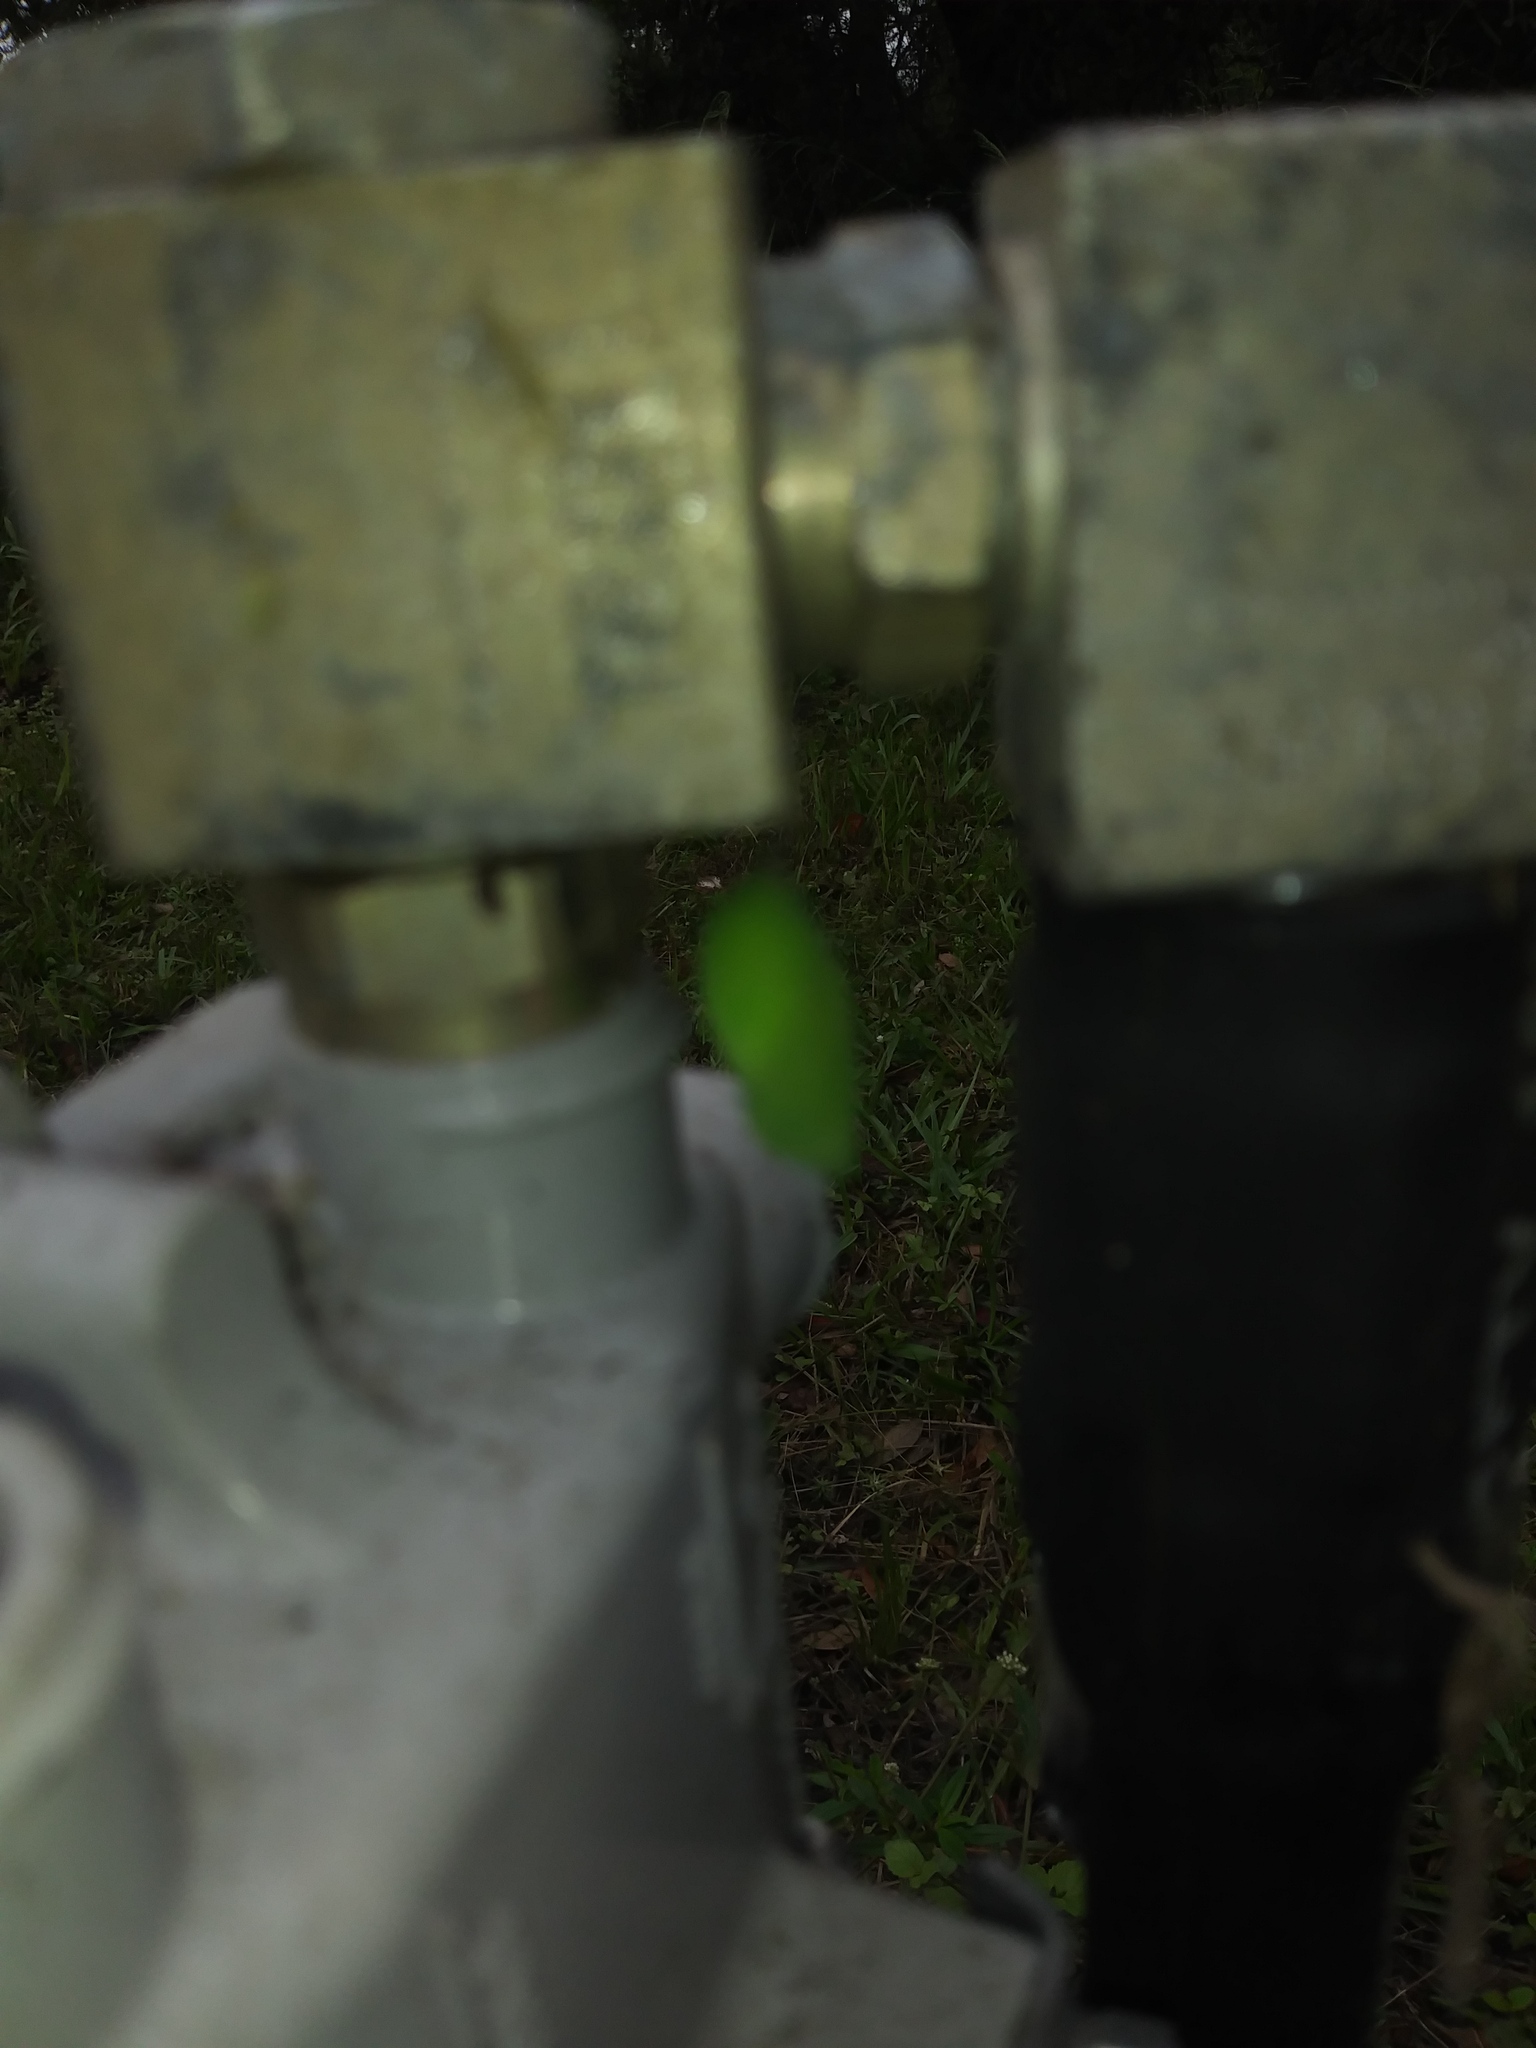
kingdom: Animalia
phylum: Arthropoda
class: Insecta
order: Lepidoptera
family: Nymphalidae
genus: Anartia
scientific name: Anartia jatrophae
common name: White peacock
